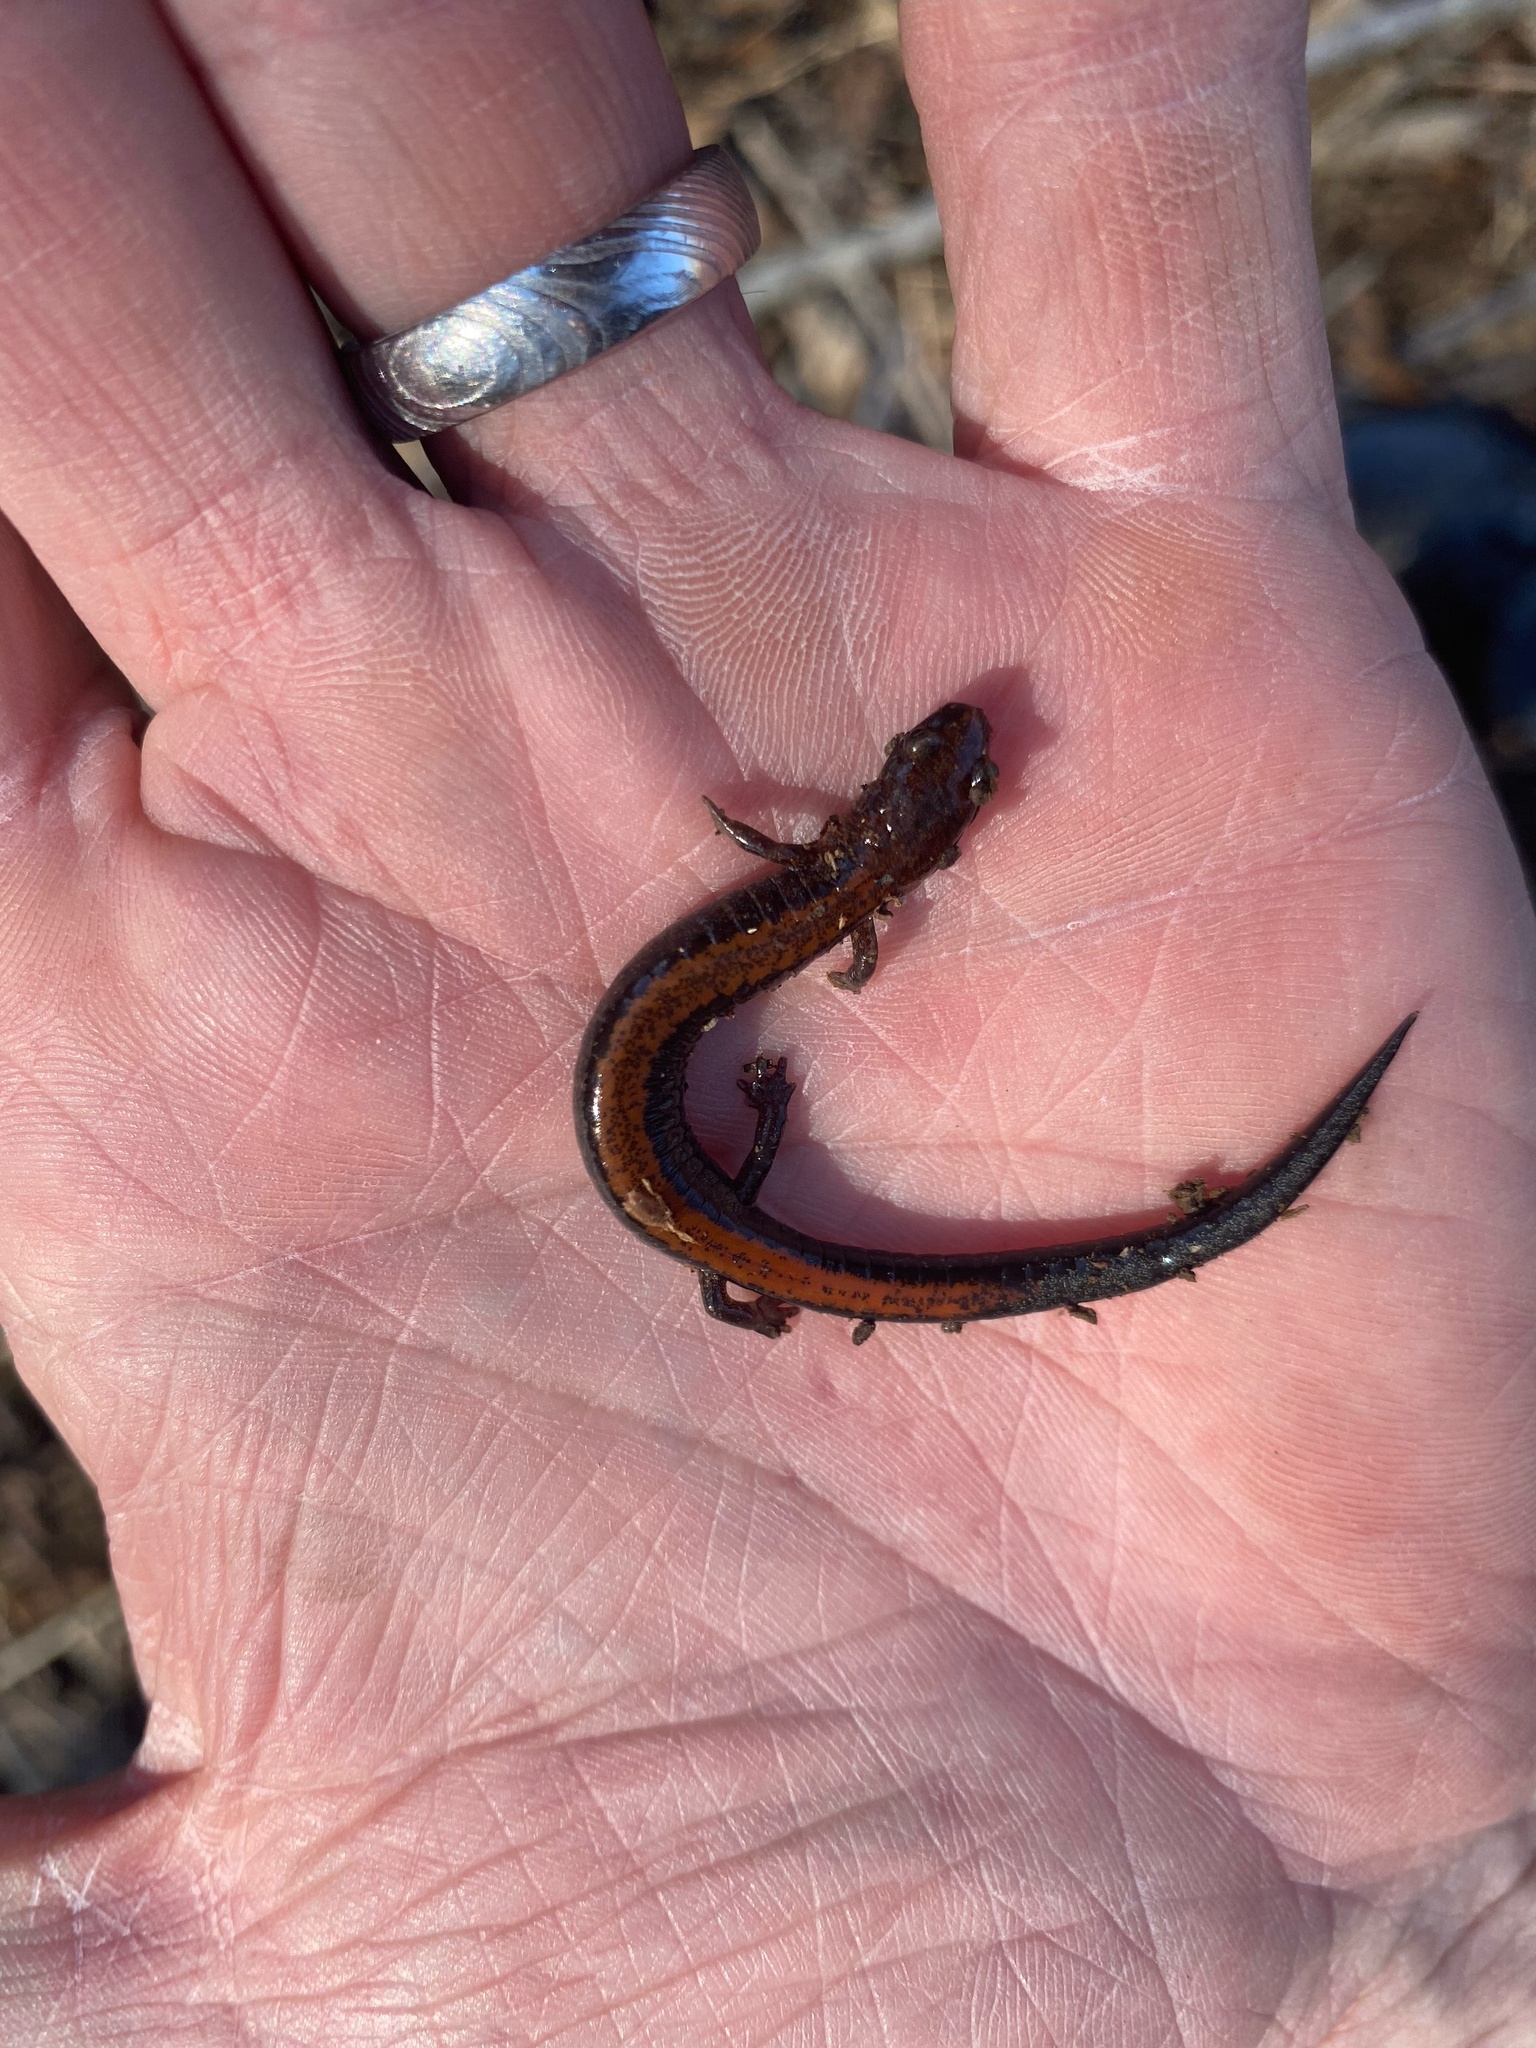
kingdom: Animalia
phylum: Chordata
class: Amphibia
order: Caudata
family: Plethodontidae
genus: Plethodon
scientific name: Plethodon cinereus
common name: Redback salamander
